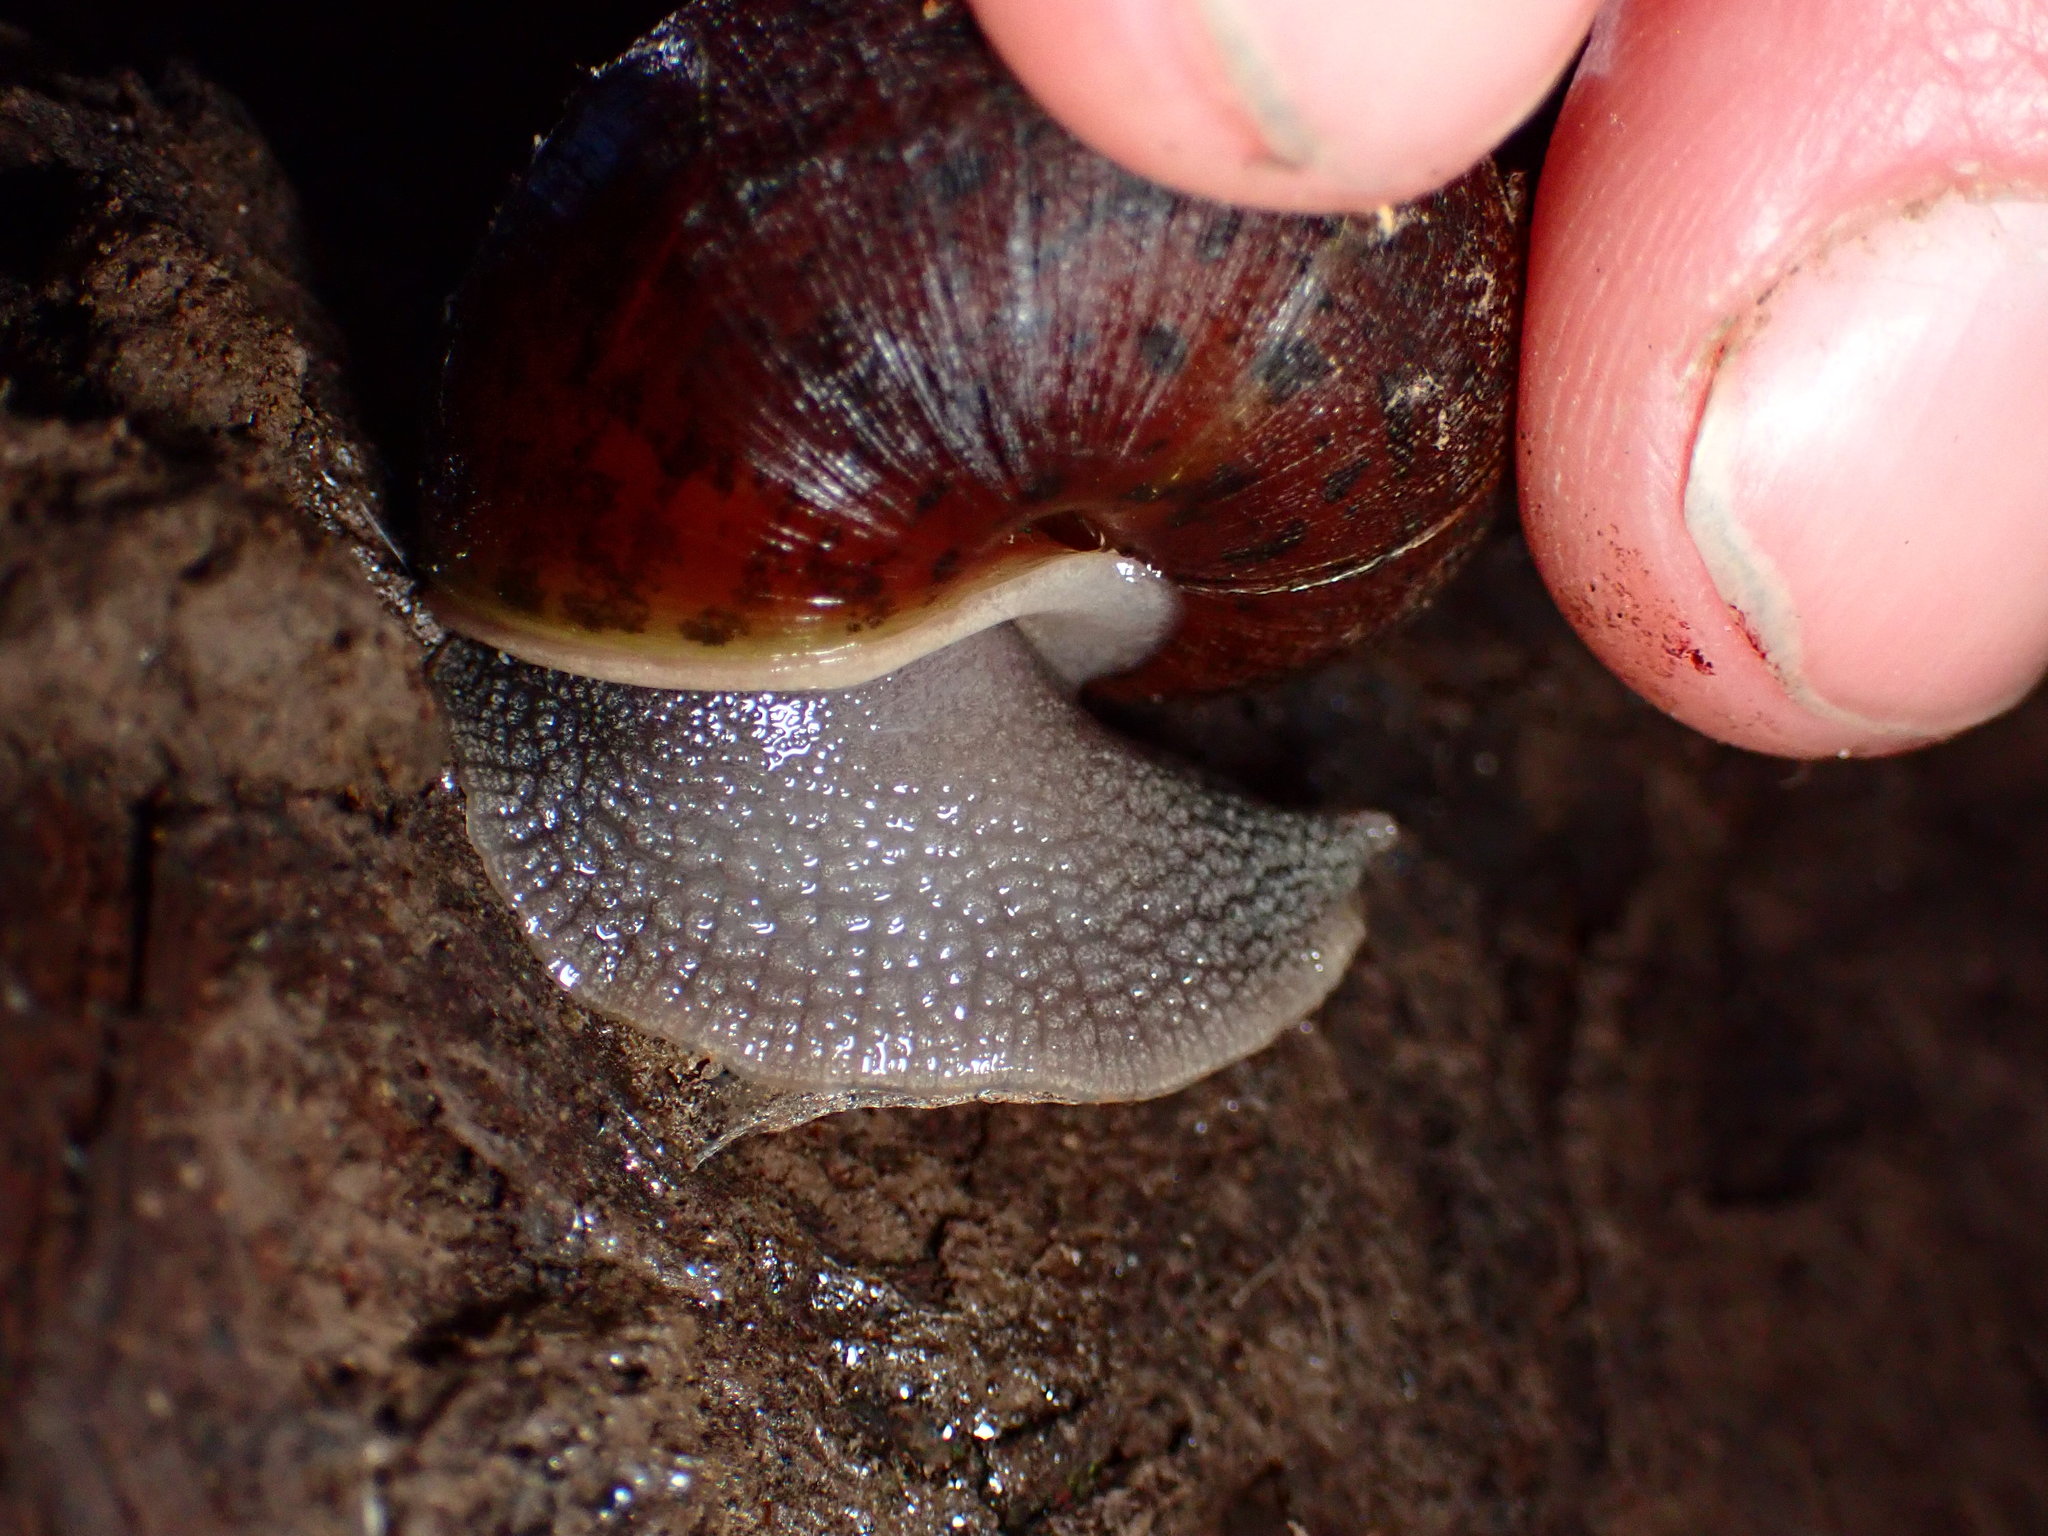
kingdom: Animalia
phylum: Mollusca
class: Gastropoda
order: Stylommatophora
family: Xanthonychidae
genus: Helminthoglypta
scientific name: Helminthoglypta nickliniana
